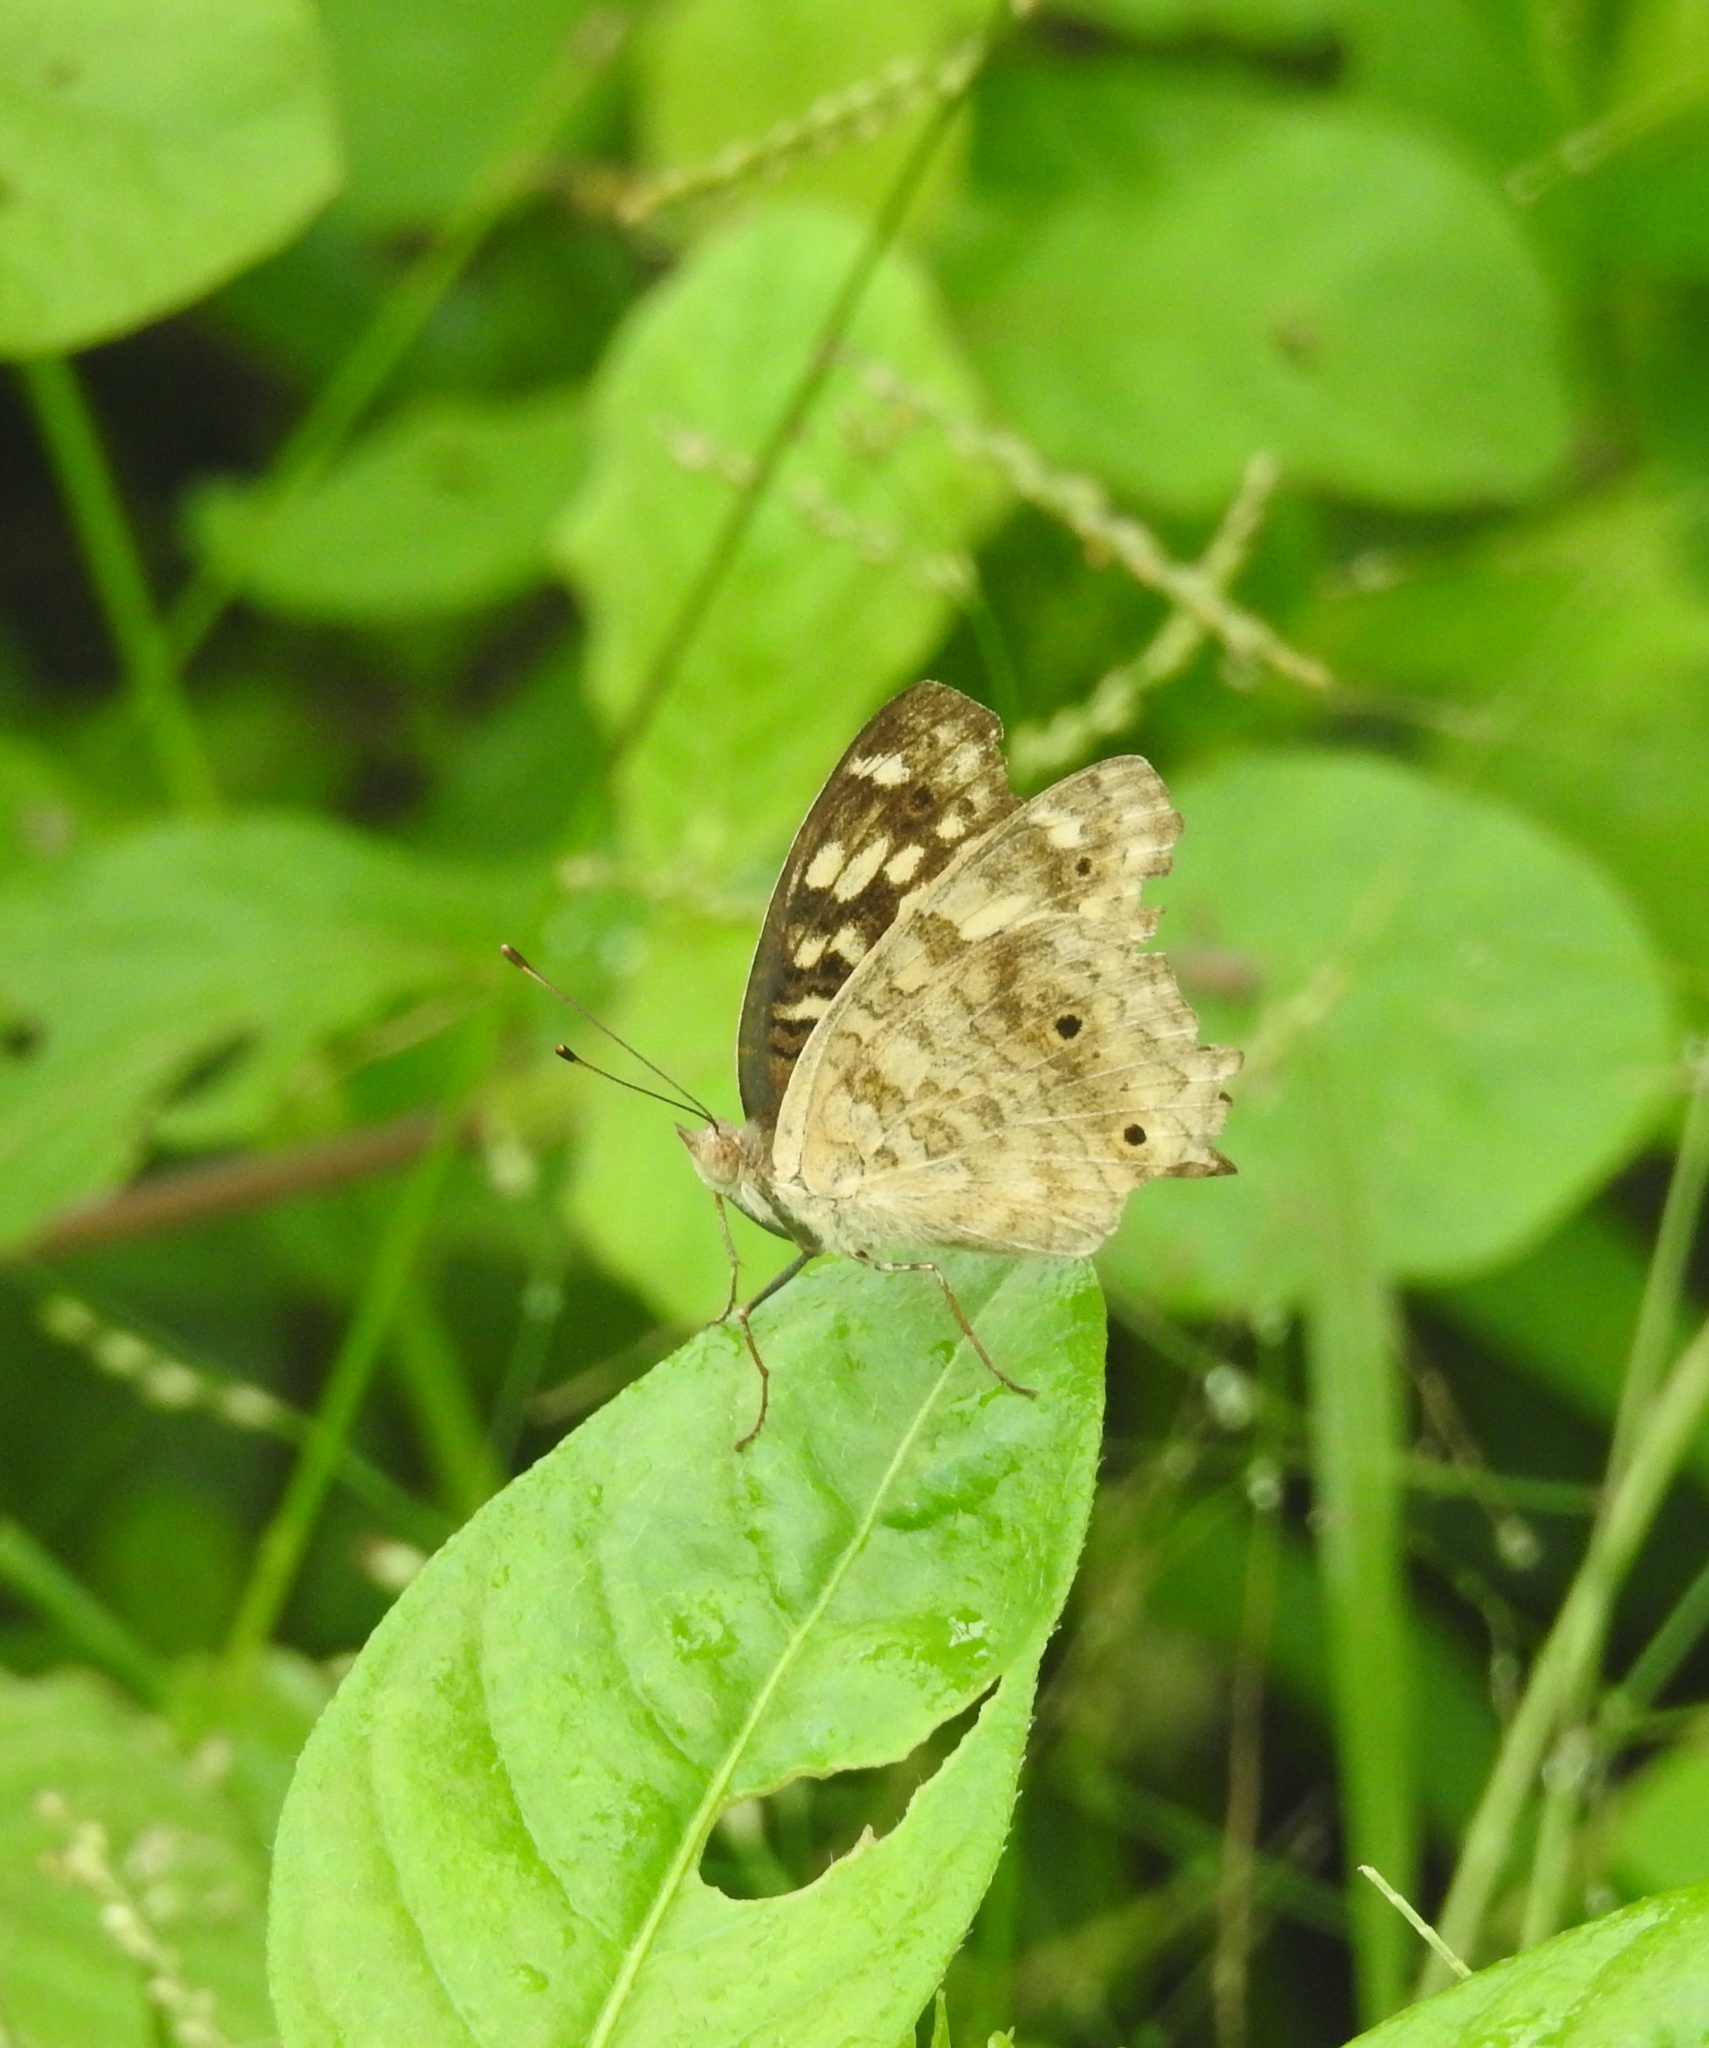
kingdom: Animalia
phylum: Arthropoda
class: Insecta
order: Lepidoptera
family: Nymphalidae
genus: Junonia
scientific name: Junonia lemonias
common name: Lemon pansy
